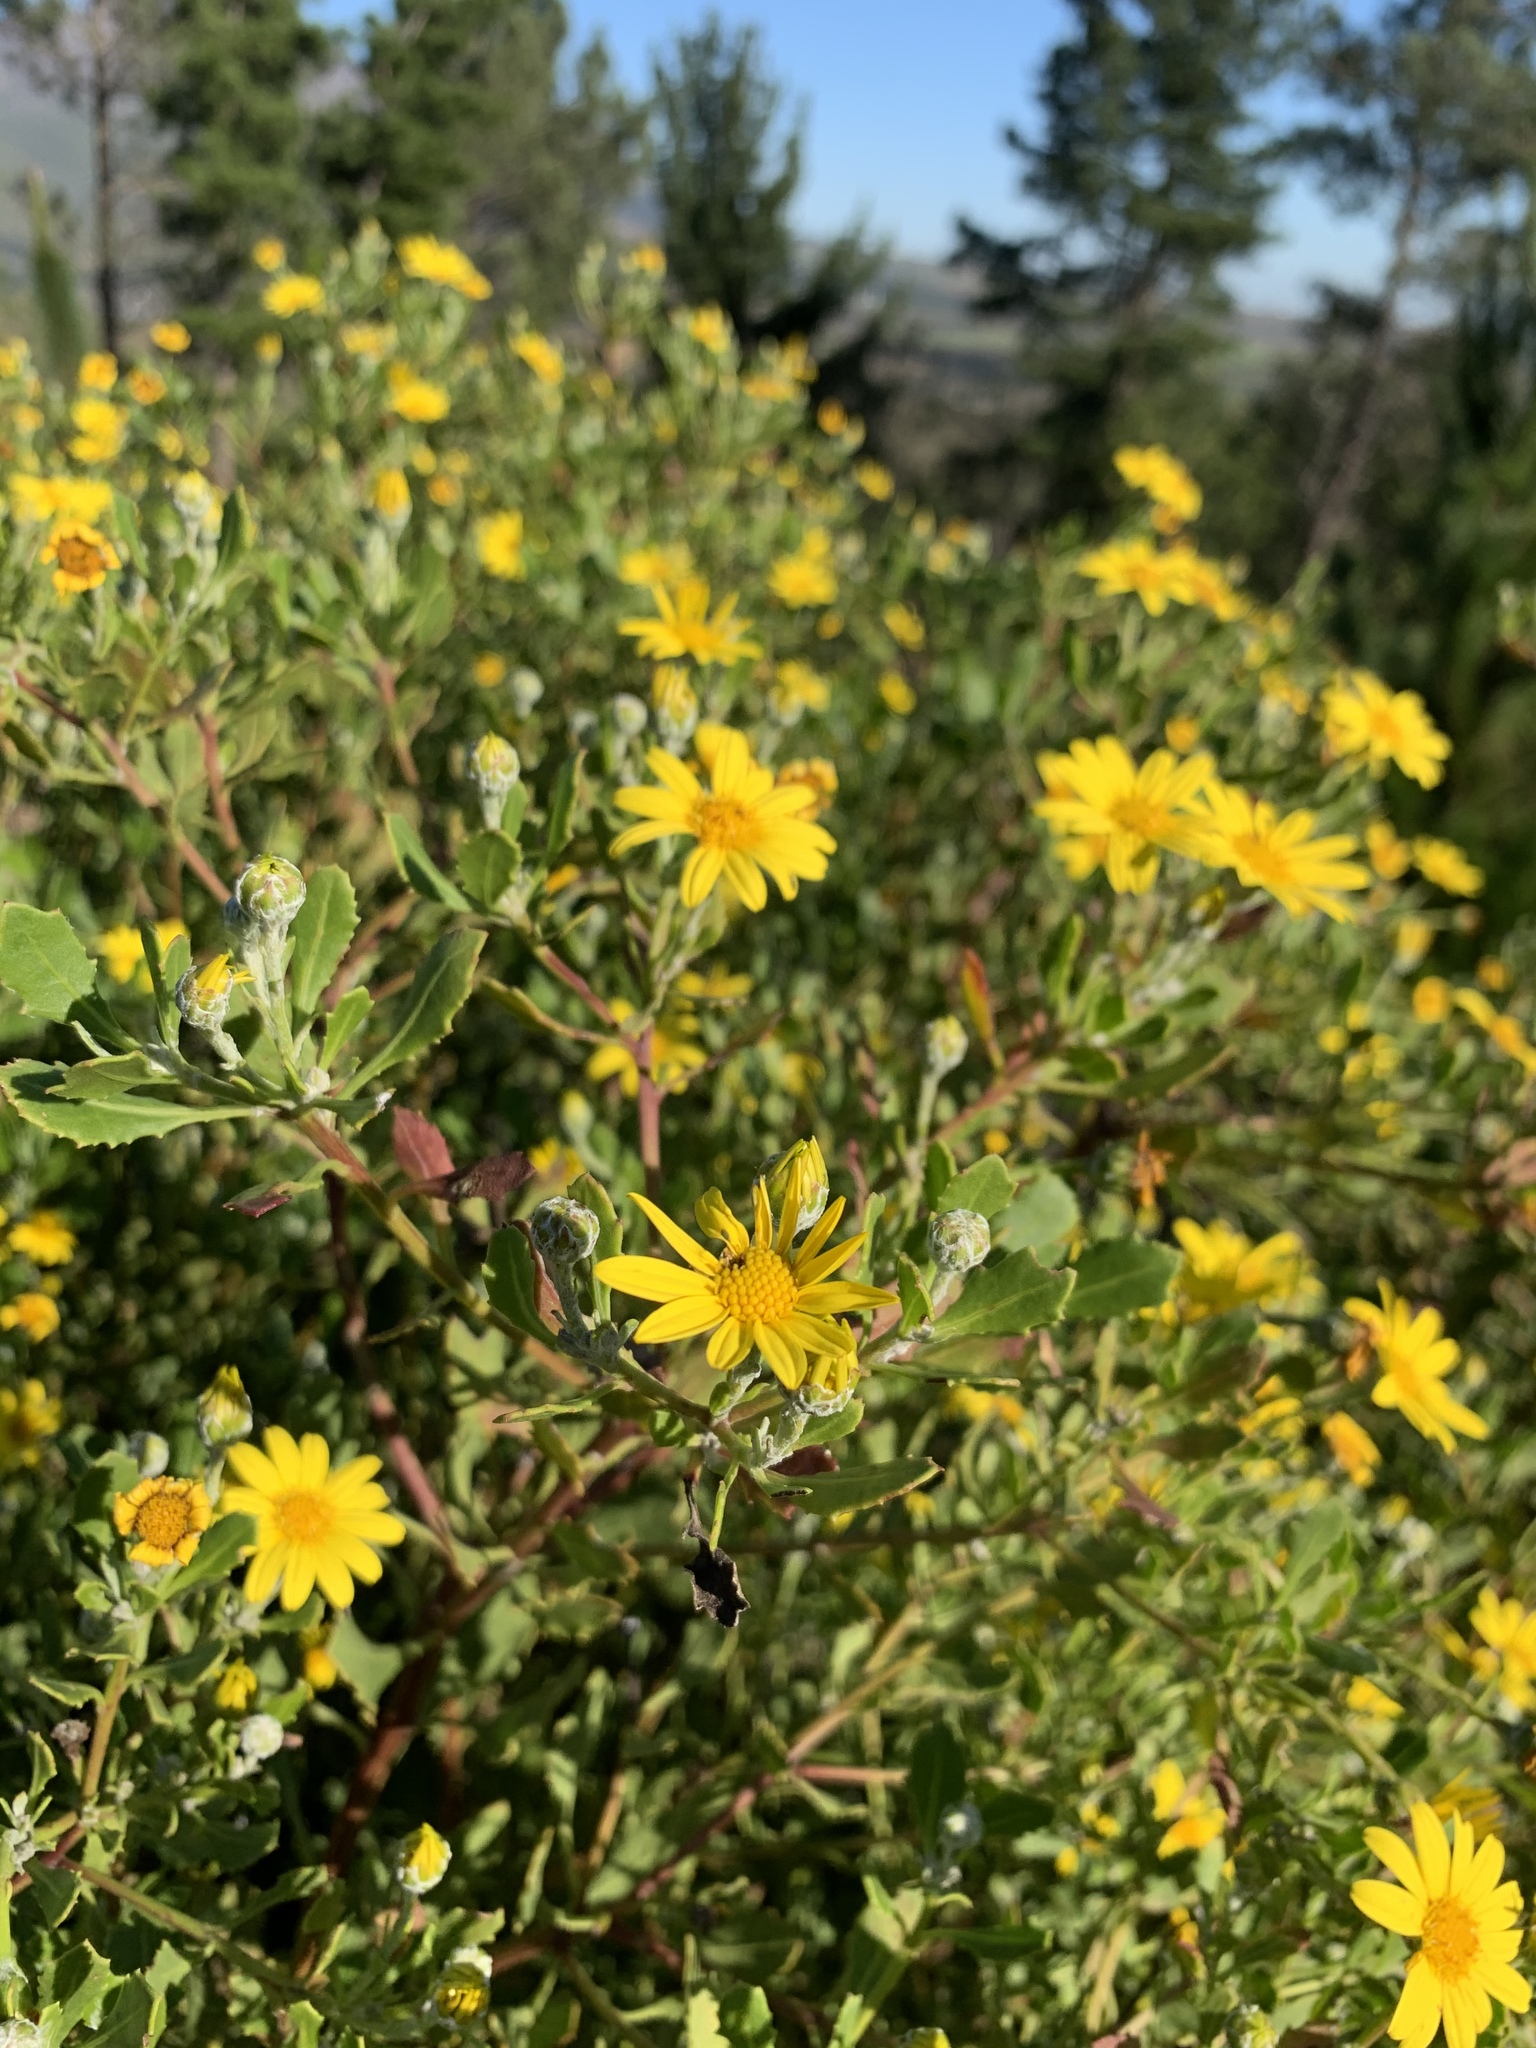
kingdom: Plantae
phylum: Tracheophyta
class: Magnoliopsida
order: Asterales
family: Asteraceae
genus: Osteospermum
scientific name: Osteospermum moniliferum
